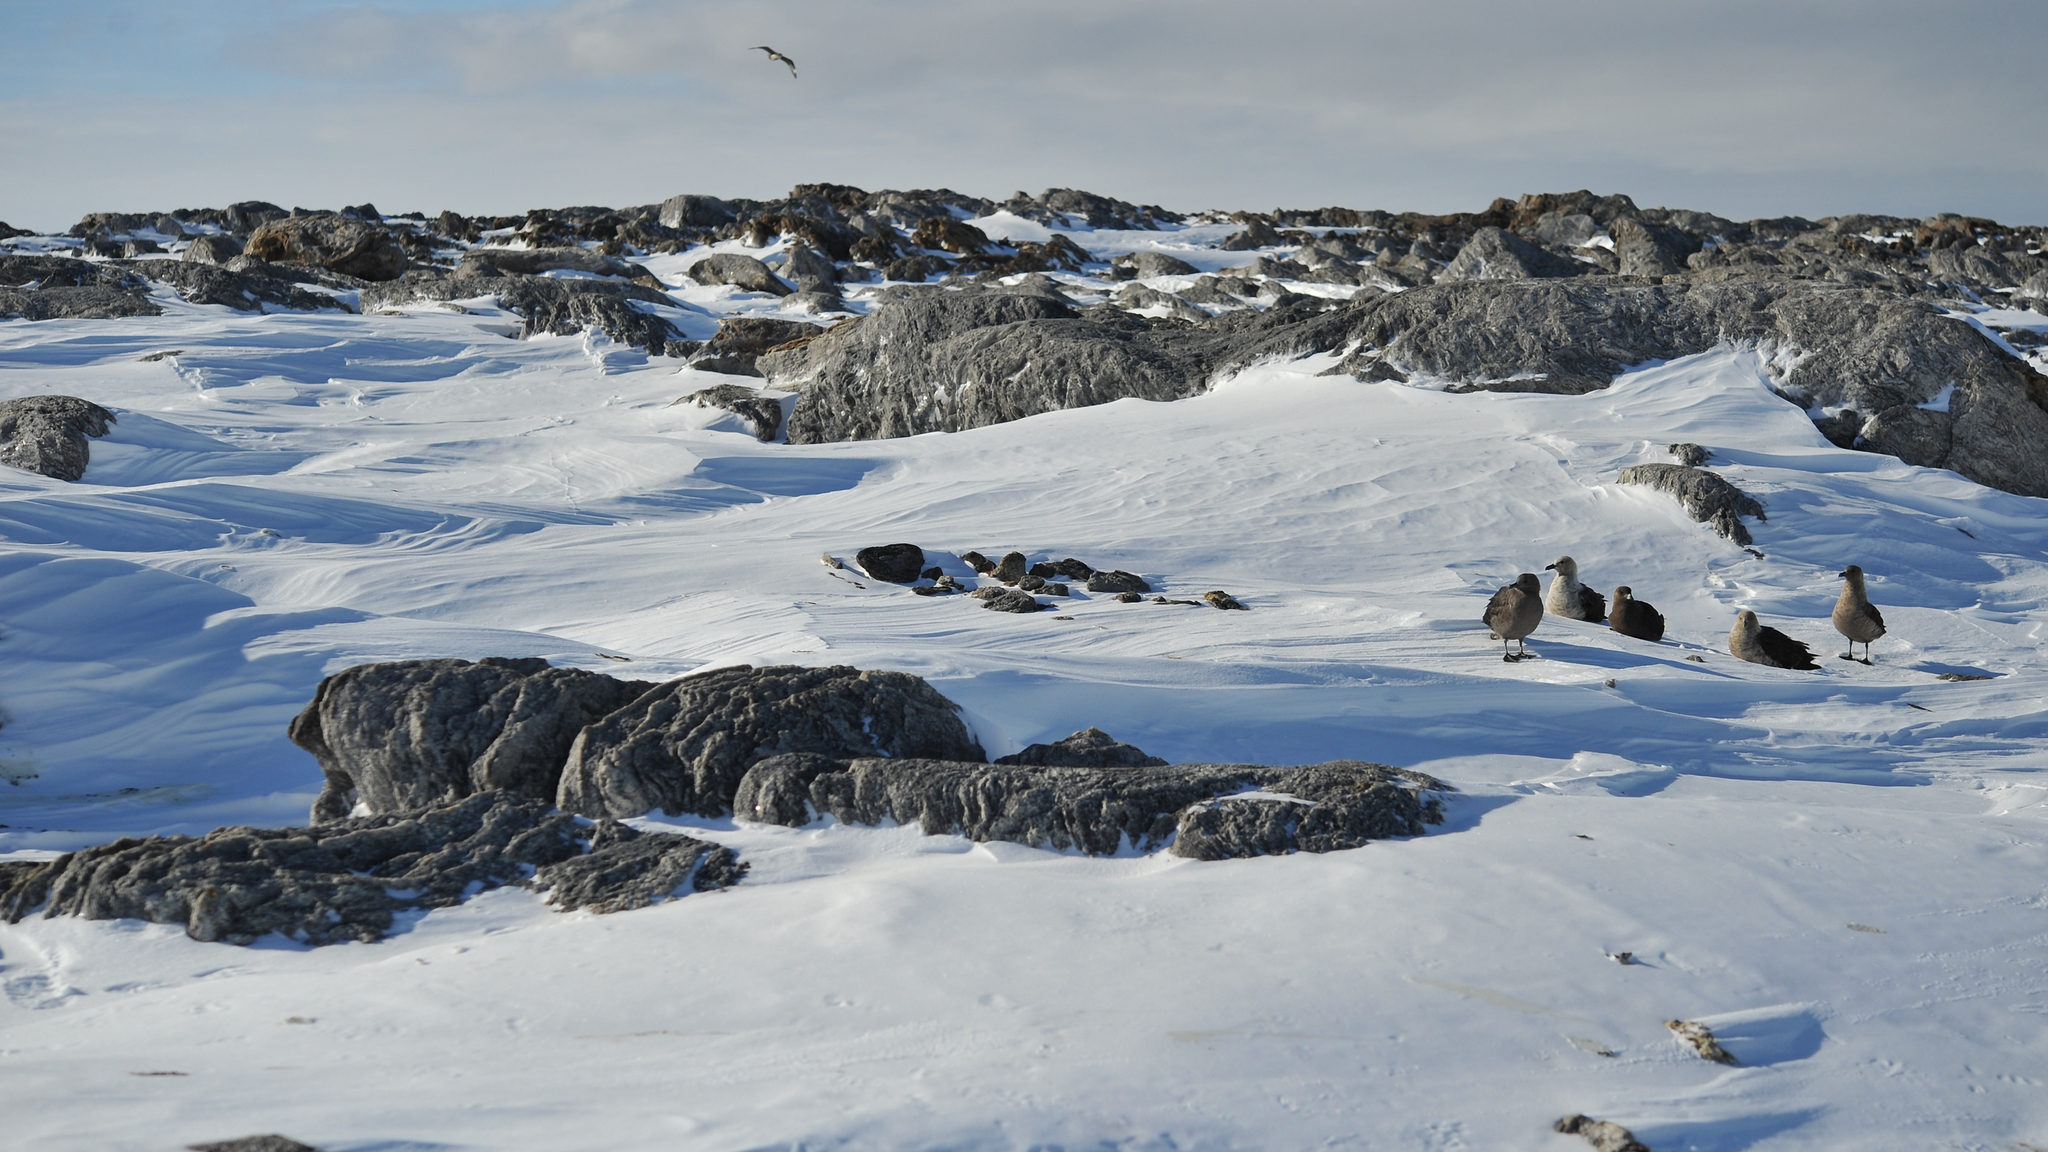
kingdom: Animalia
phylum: Chordata
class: Aves
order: Charadriiformes
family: Stercorariidae
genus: Stercorarius
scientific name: Stercorarius maccormicki
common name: South polar skua
